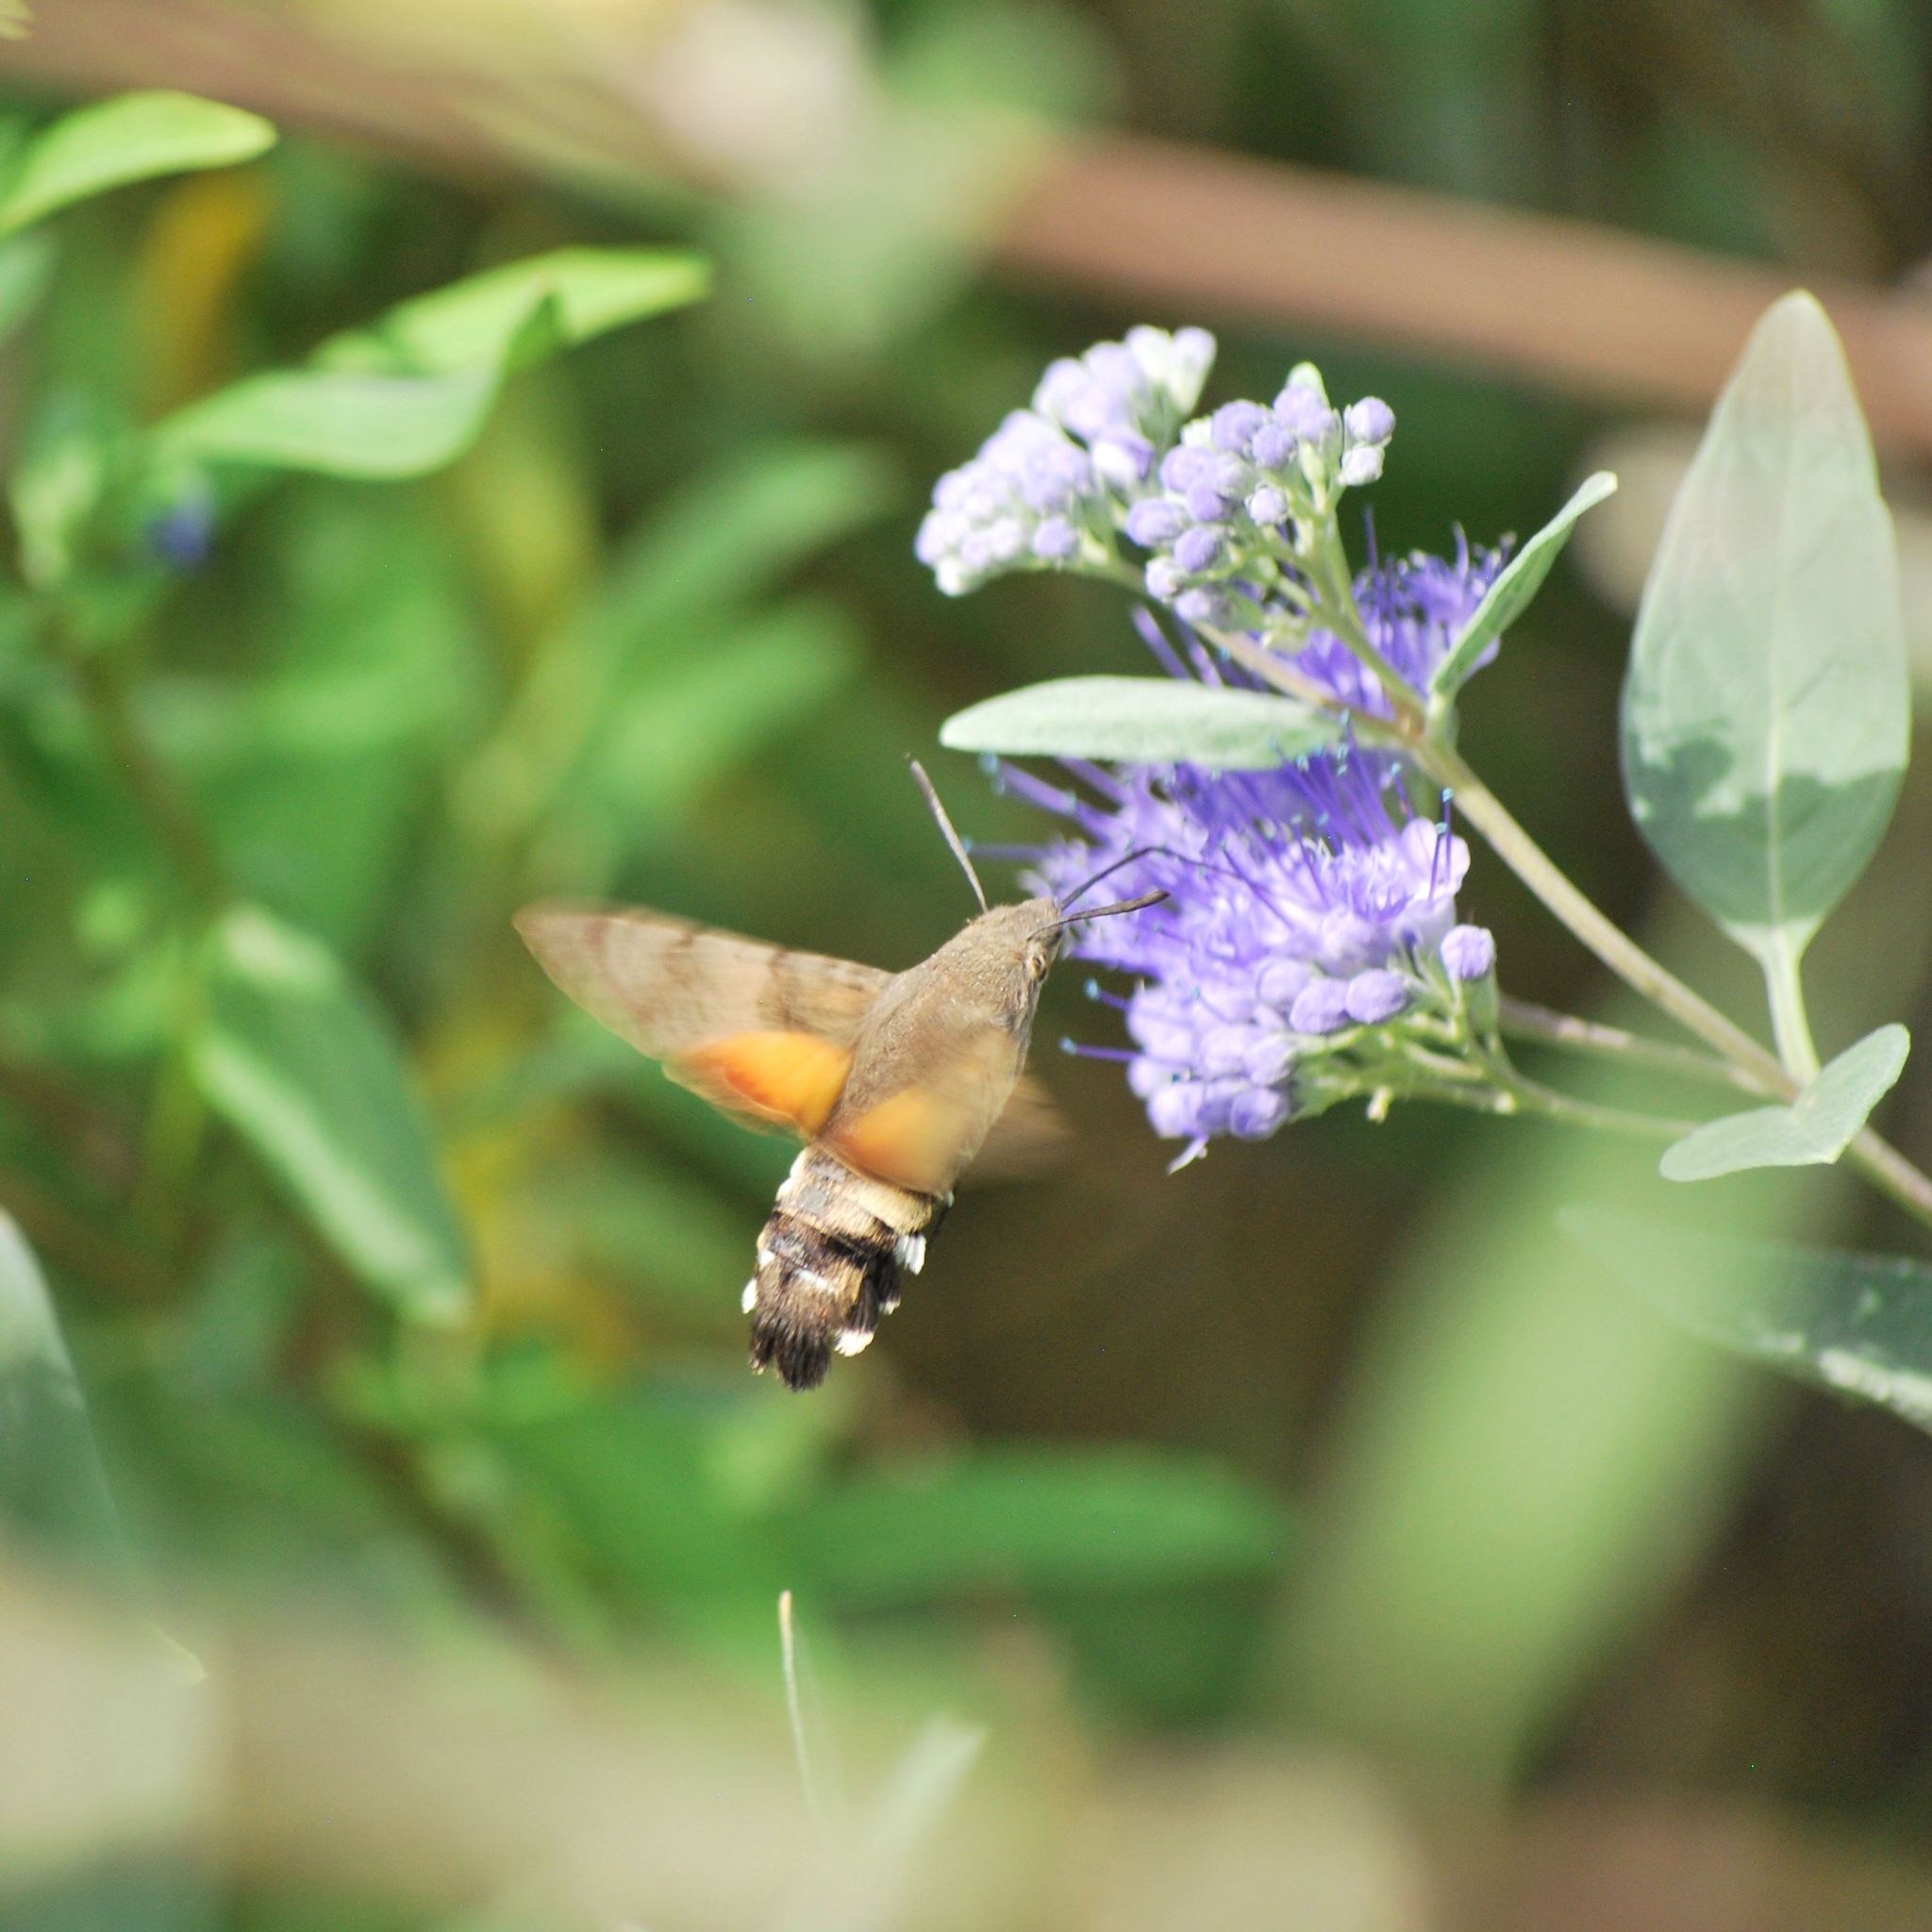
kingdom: Animalia
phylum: Arthropoda
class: Insecta
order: Lepidoptera
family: Sphingidae
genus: Macroglossum
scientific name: Macroglossum stellatarum
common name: Humming-bird hawk-moth
